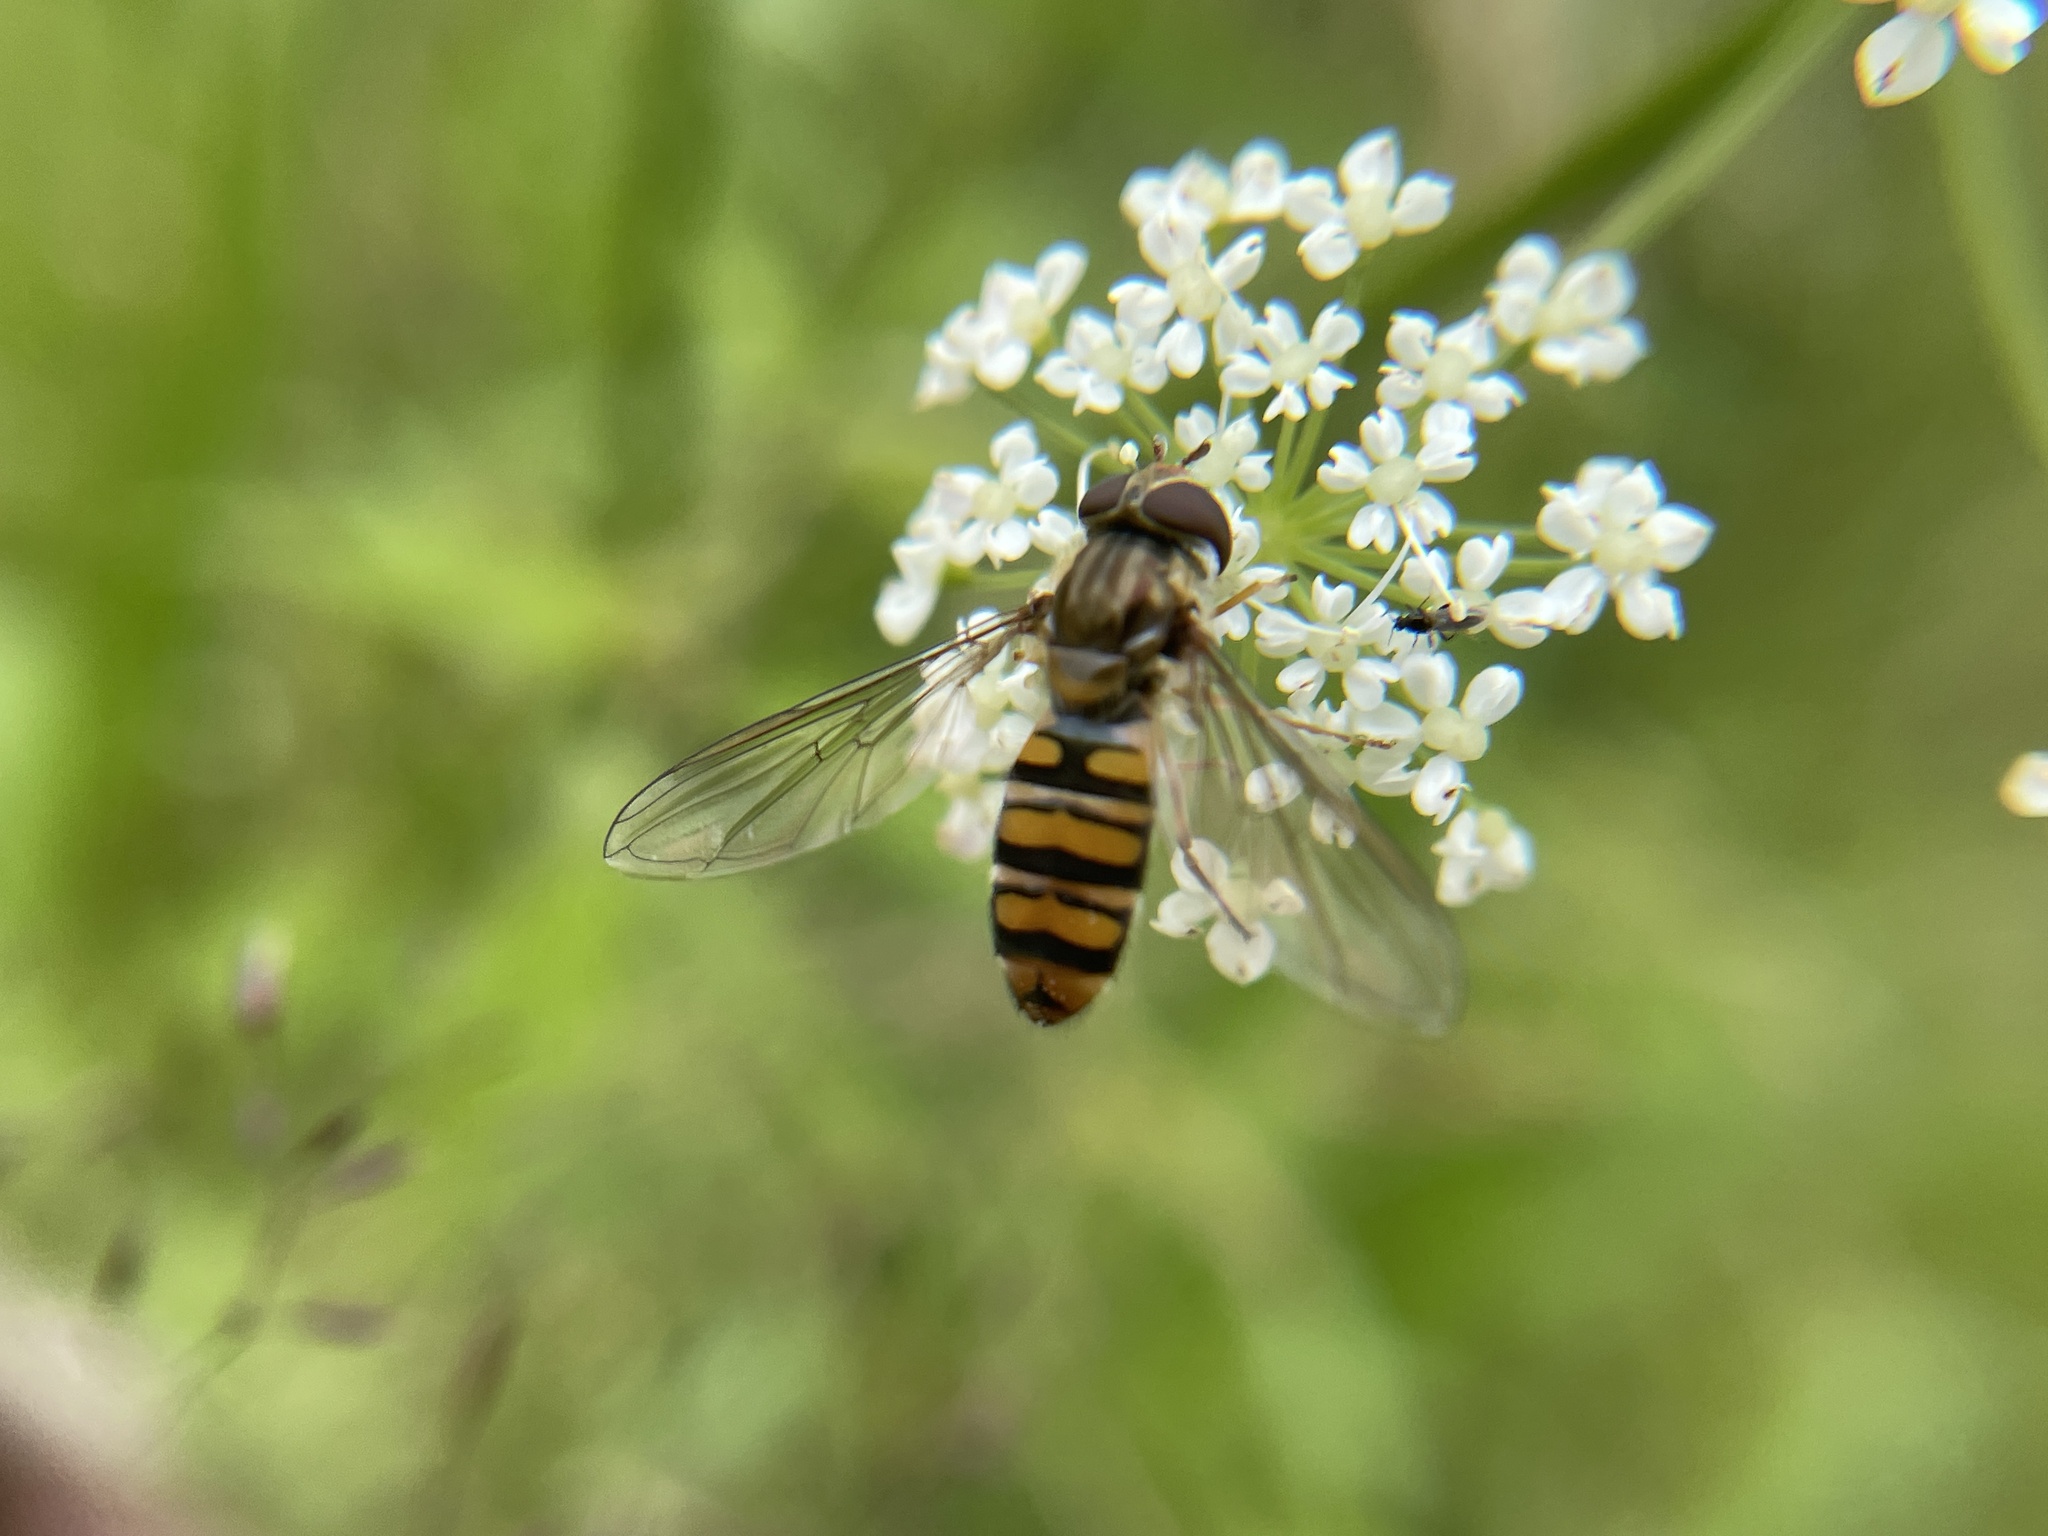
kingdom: Animalia
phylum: Arthropoda
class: Insecta
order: Diptera
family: Syrphidae
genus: Episyrphus
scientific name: Episyrphus balteatus
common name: Marmalade hoverfly
